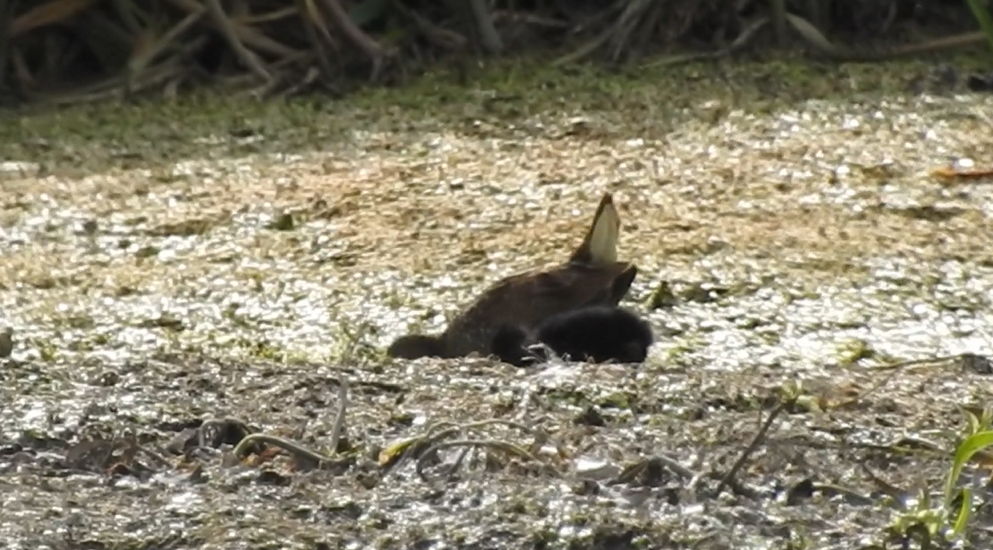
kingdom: Animalia
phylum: Chordata
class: Aves
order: Gruiformes
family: Rallidae
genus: Porzana
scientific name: Porzana porzana
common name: Spotted crake
